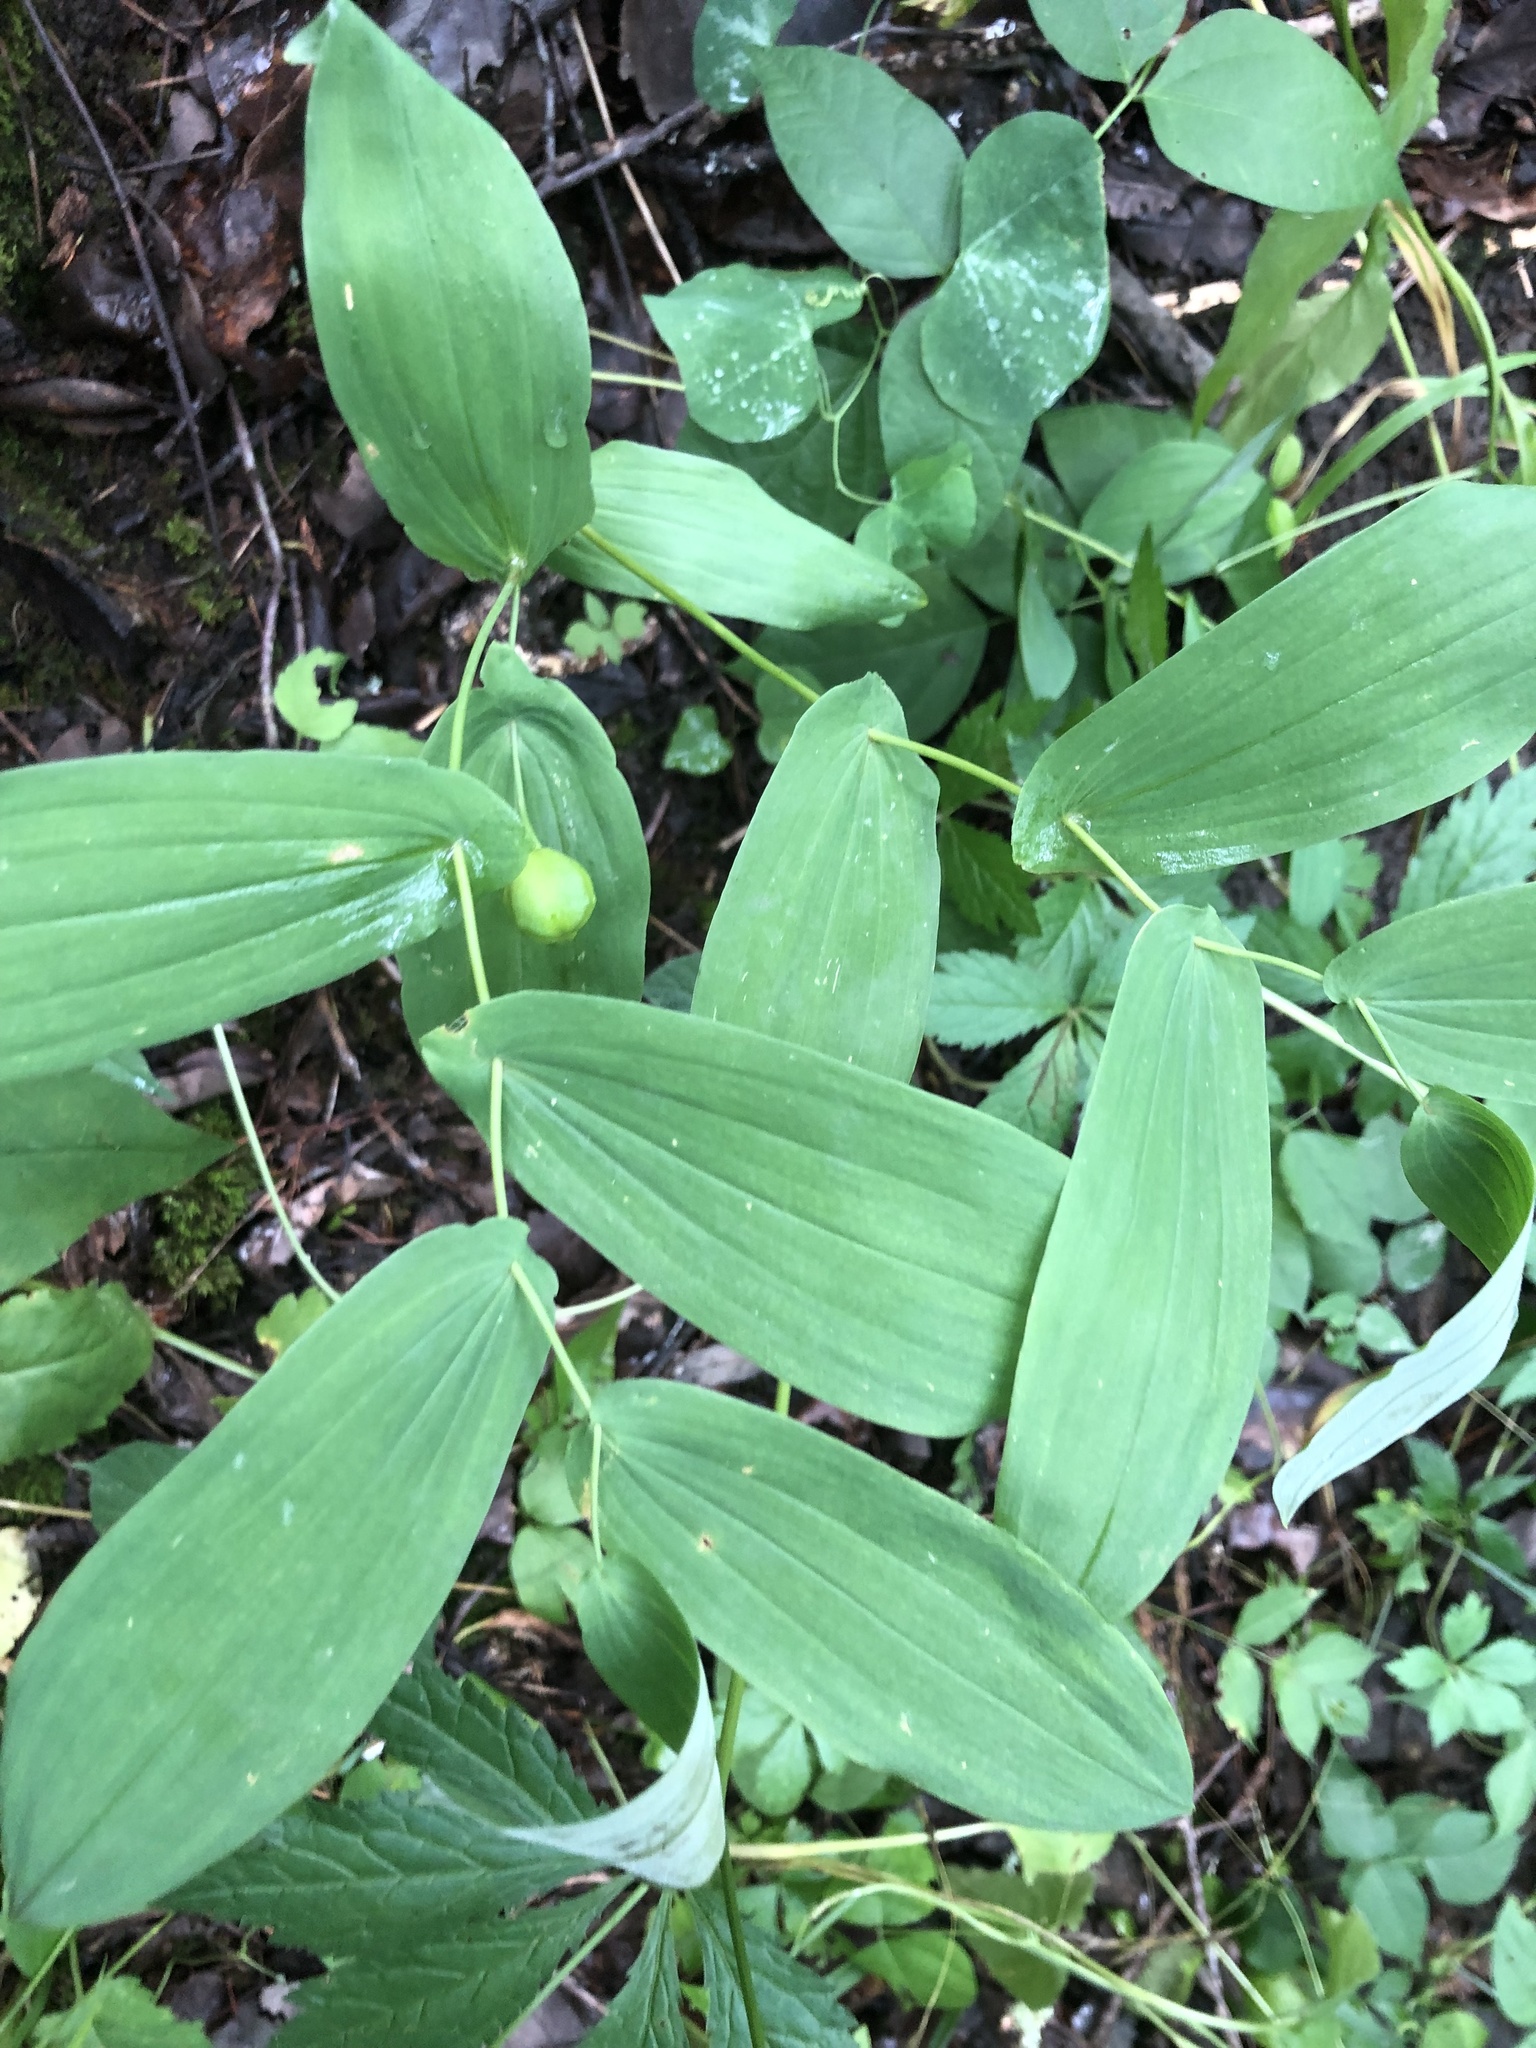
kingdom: Plantae
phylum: Tracheophyta
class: Liliopsida
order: Liliales
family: Colchicaceae
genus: Uvularia
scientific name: Uvularia grandiflora
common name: Bellwort
